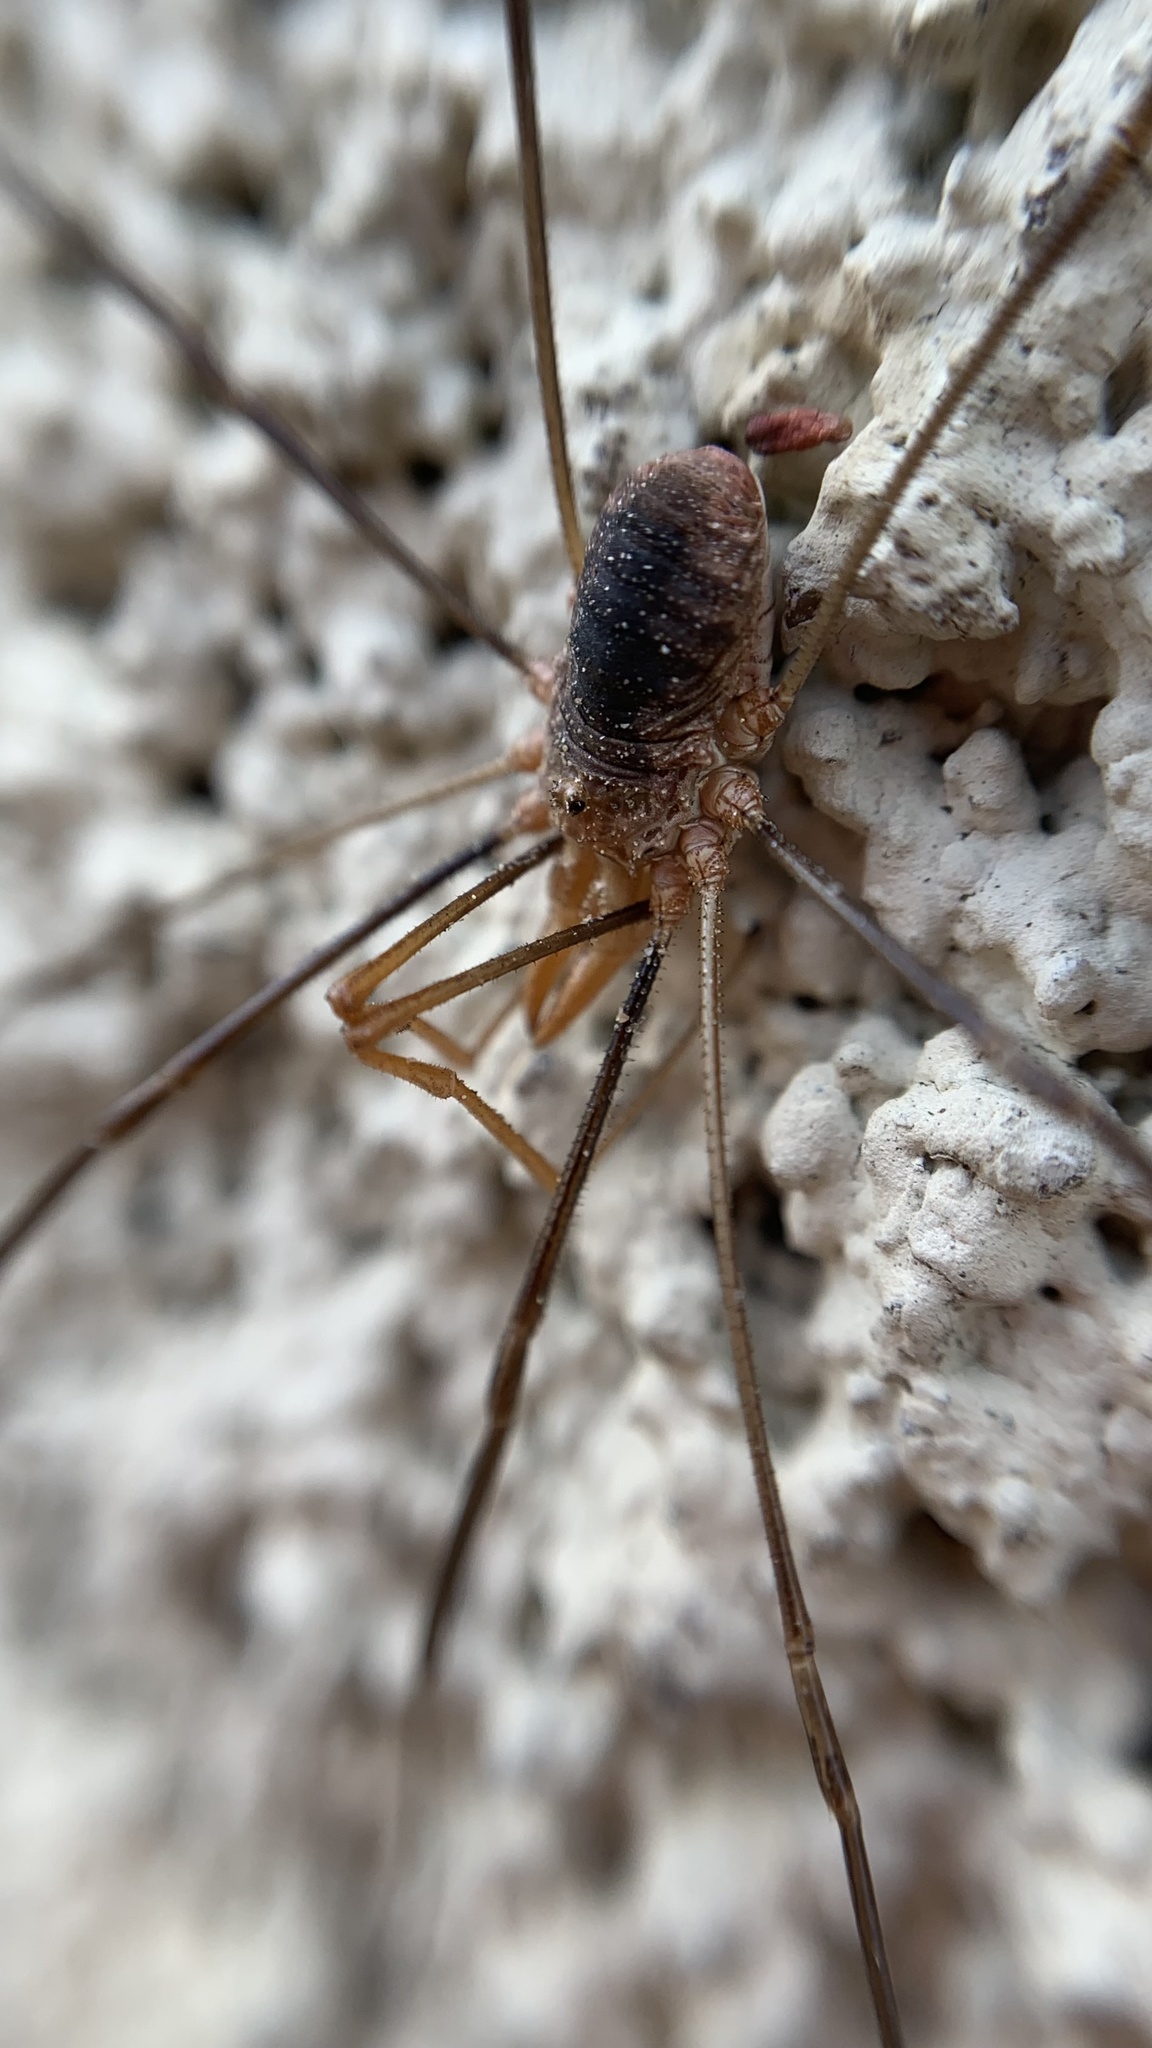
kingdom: Animalia
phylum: Arthropoda
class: Arachnida
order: Opiliones
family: Phalangiidae
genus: Phalangium
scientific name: Phalangium opilio
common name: Daddy longleg
